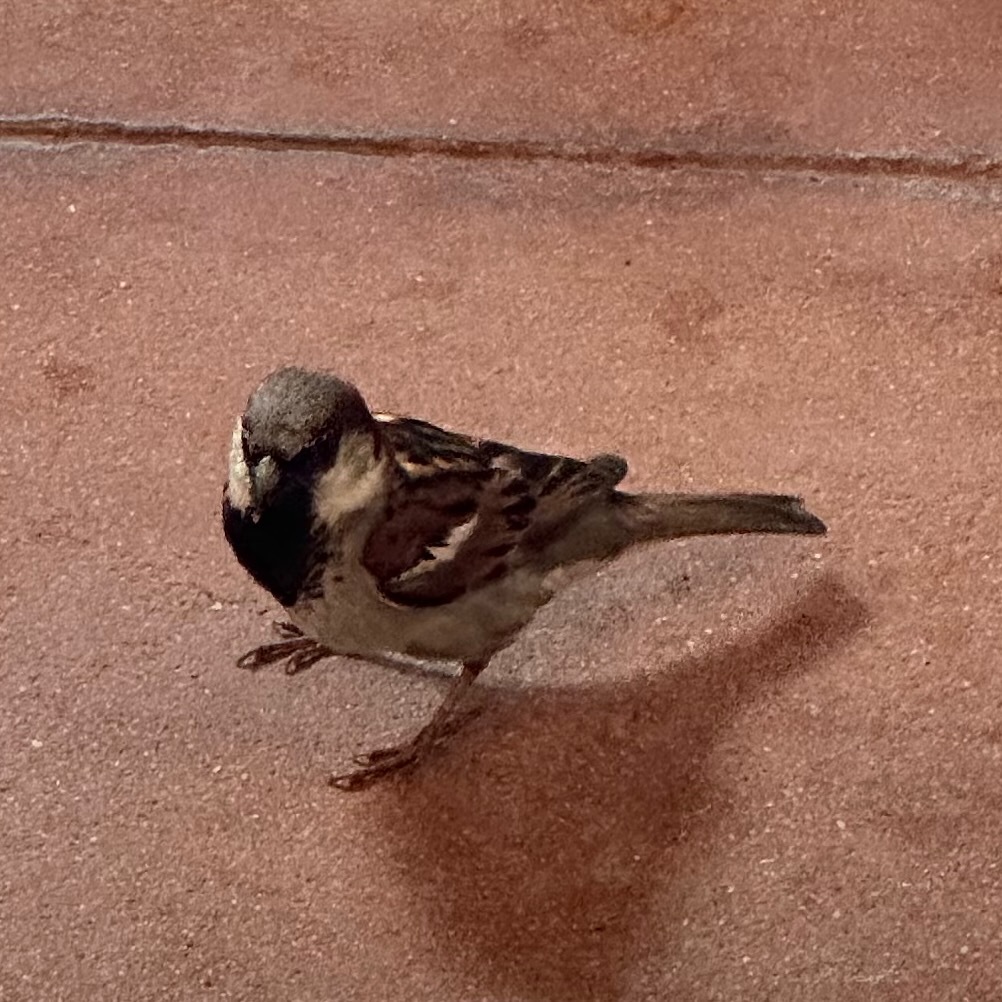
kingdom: Animalia
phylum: Chordata
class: Aves
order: Passeriformes
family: Passeridae
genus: Passer
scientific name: Passer domesticus
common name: House sparrow
